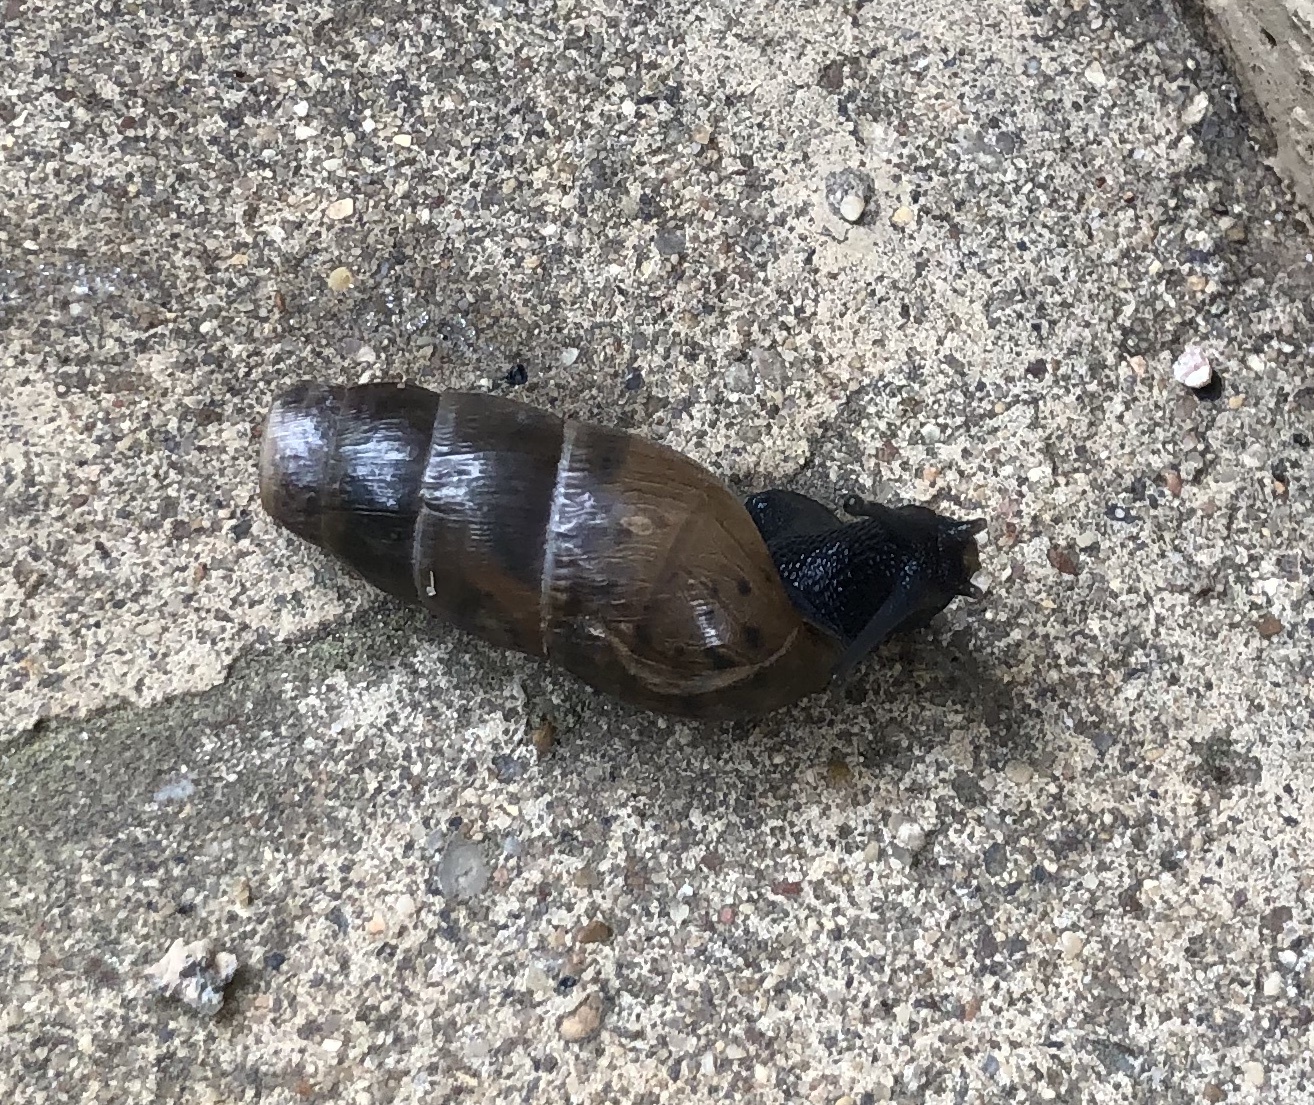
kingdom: Animalia
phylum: Mollusca
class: Gastropoda
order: Stylommatophora
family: Achatinidae
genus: Rumina
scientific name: Rumina decollata
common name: Decollate snail
